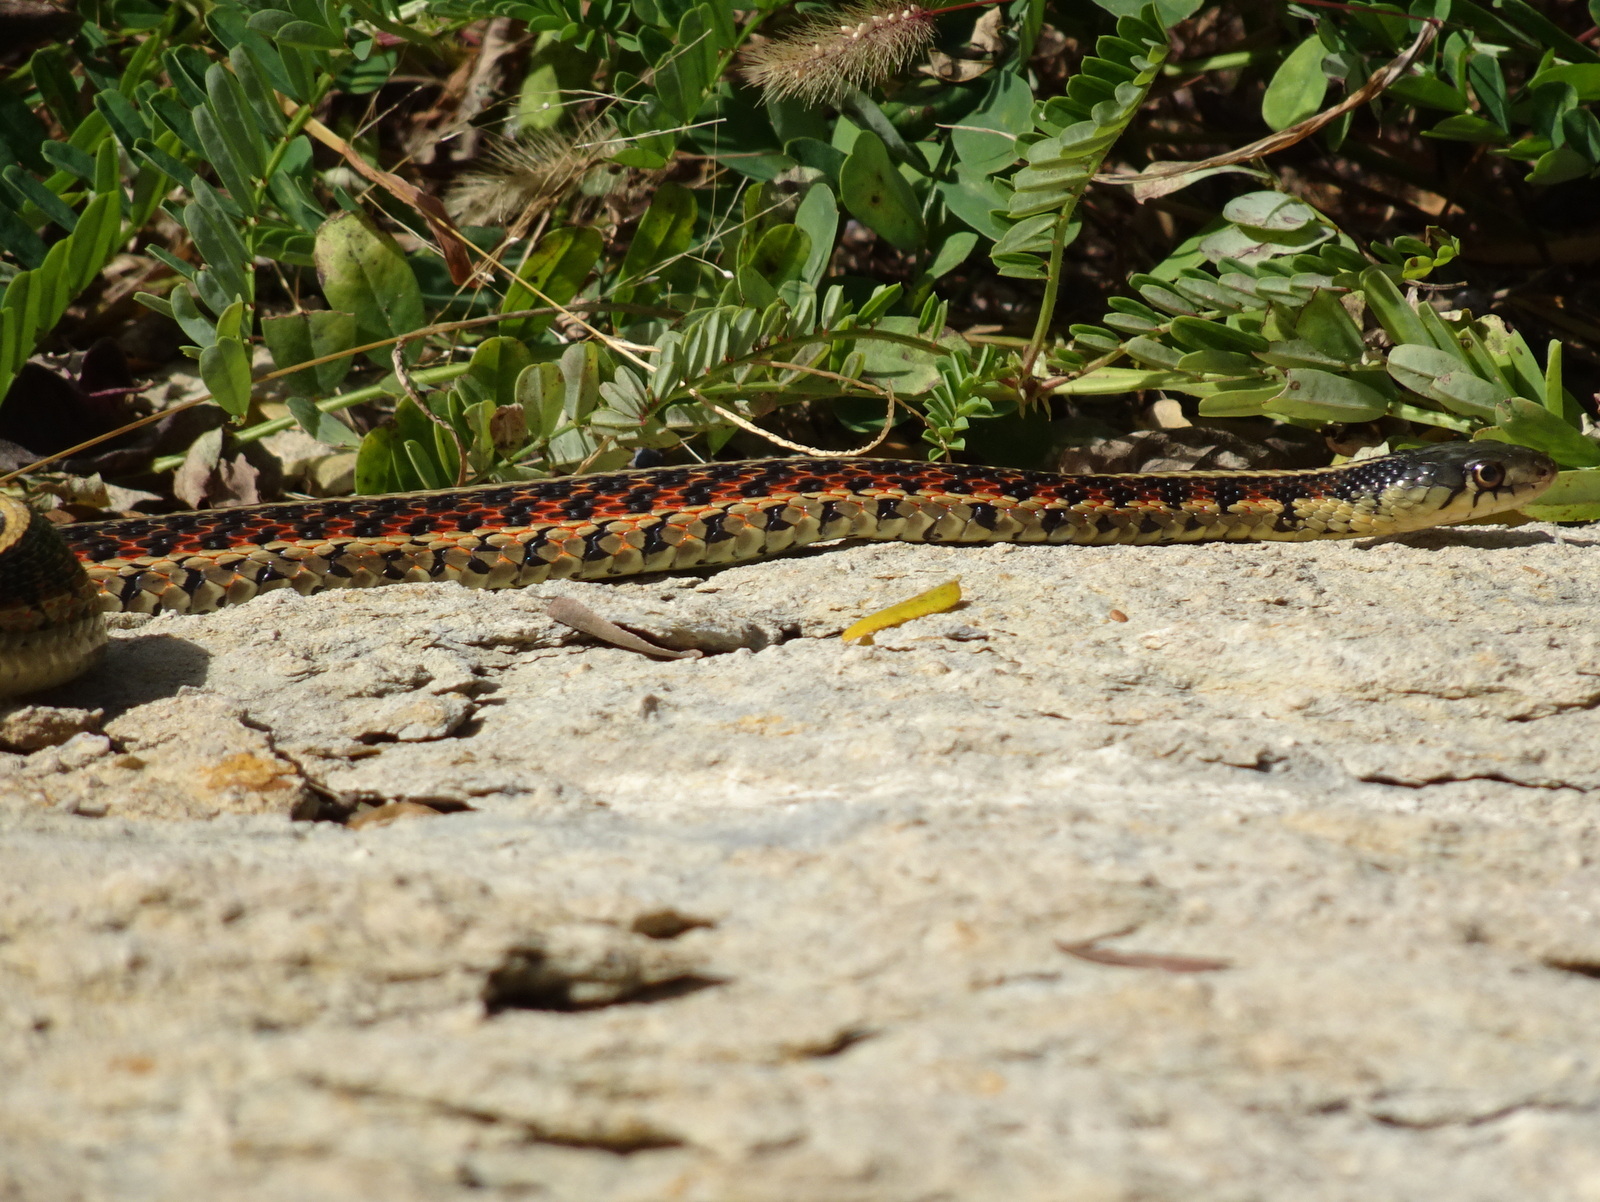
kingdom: Animalia
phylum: Chordata
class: Squamata
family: Colubridae
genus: Thamnophis
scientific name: Thamnophis sirtalis
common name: Common garter snake
